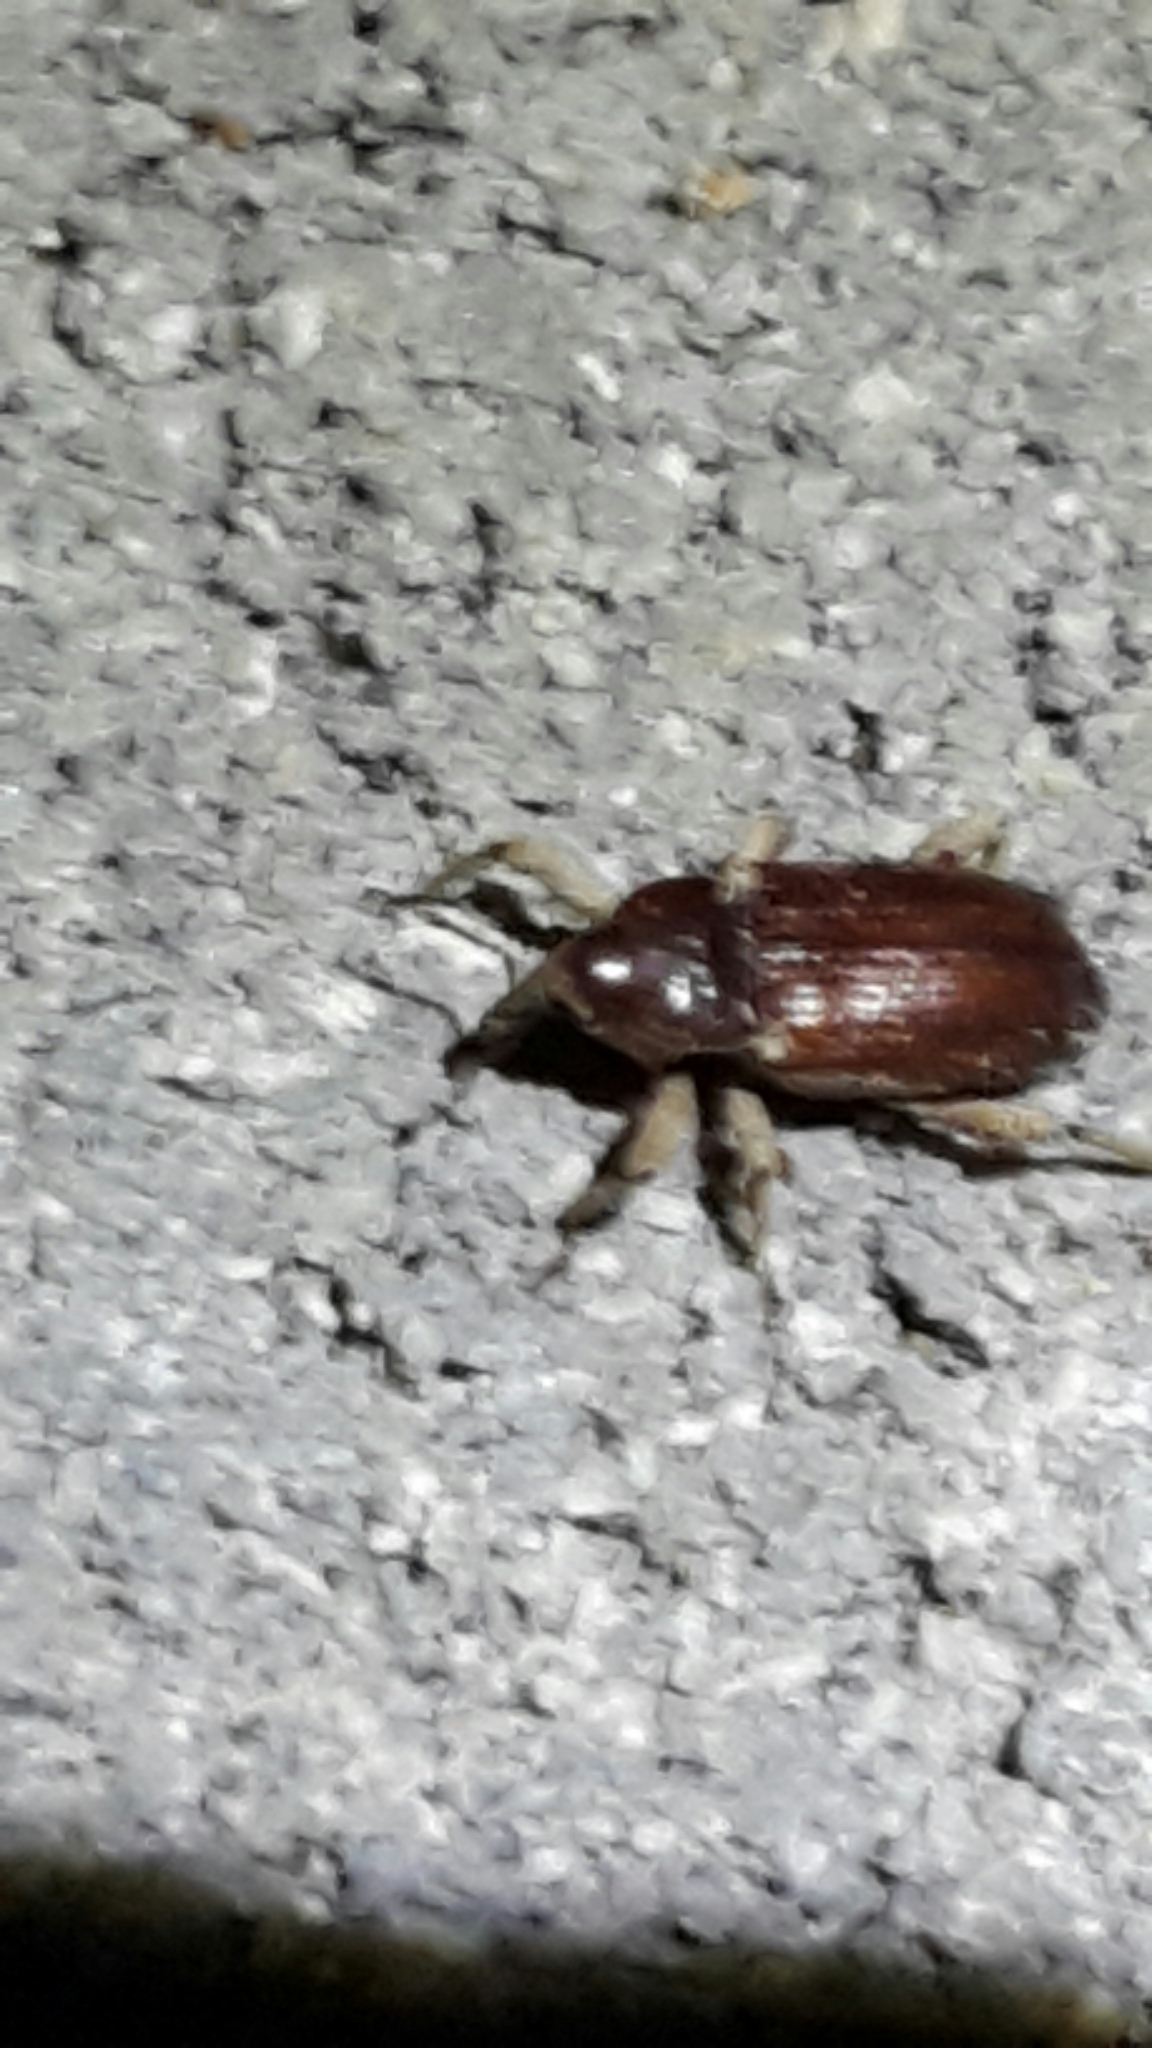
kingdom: Animalia
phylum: Arthropoda
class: Insecta
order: Coleoptera
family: Curculionidae
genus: Mitrastethus
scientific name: Mitrastethus baridioides
